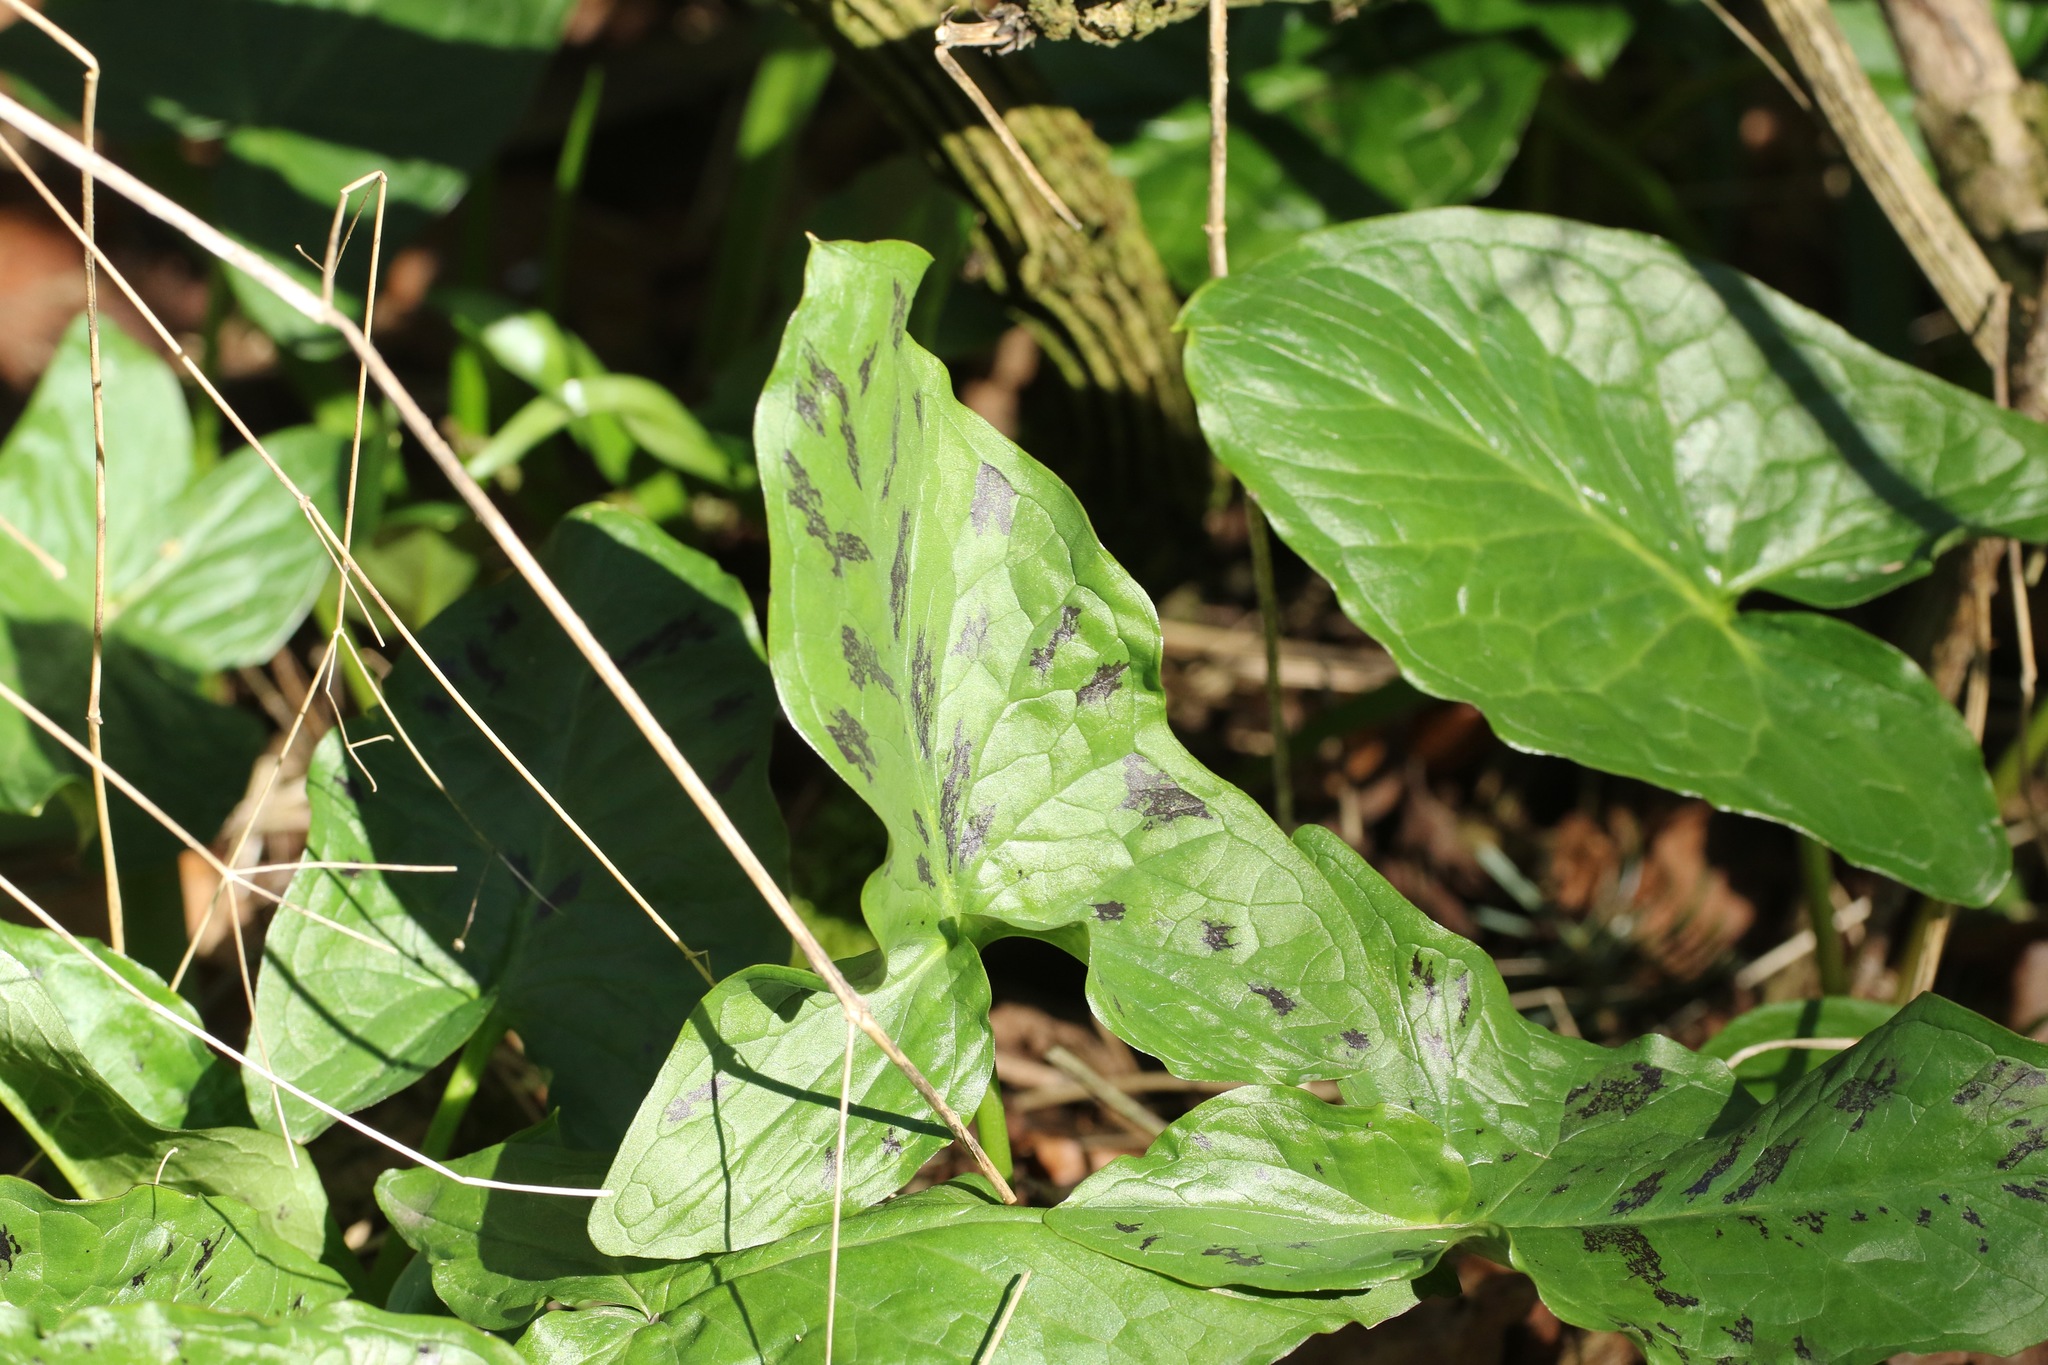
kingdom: Plantae
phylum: Tracheophyta
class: Liliopsida
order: Alismatales
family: Araceae
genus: Arum
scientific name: Arum maculatum
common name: Lords-and-ladies
